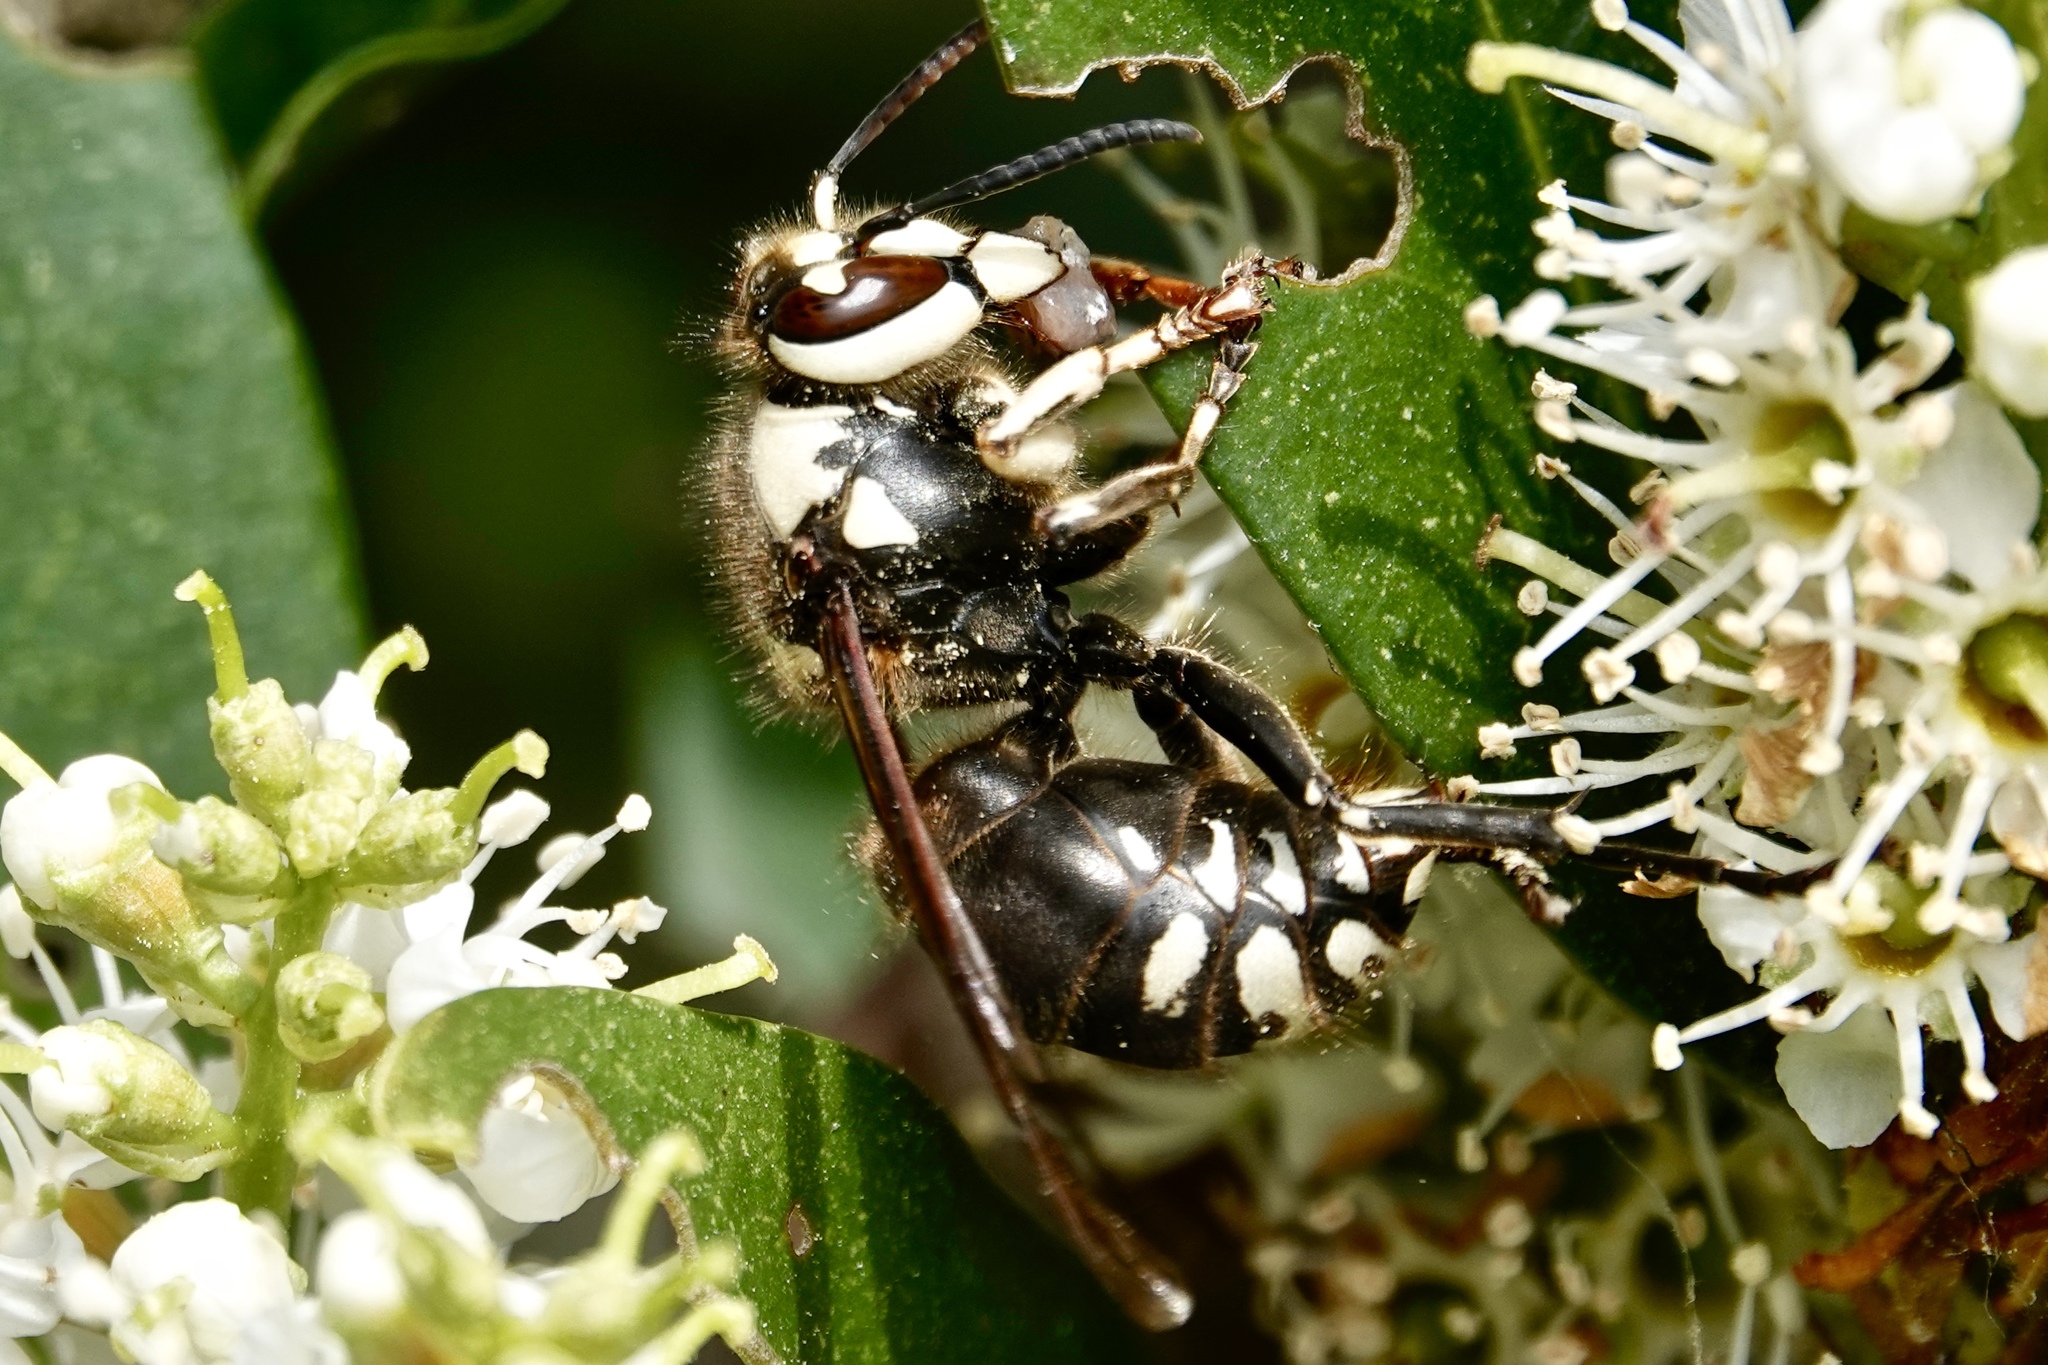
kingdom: Animalia
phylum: Arthropoda
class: Insecta
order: Hymenoptera
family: Vespidae
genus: Dolichovespula
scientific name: Dolichovespula maculata
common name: Bald-faced hornet
